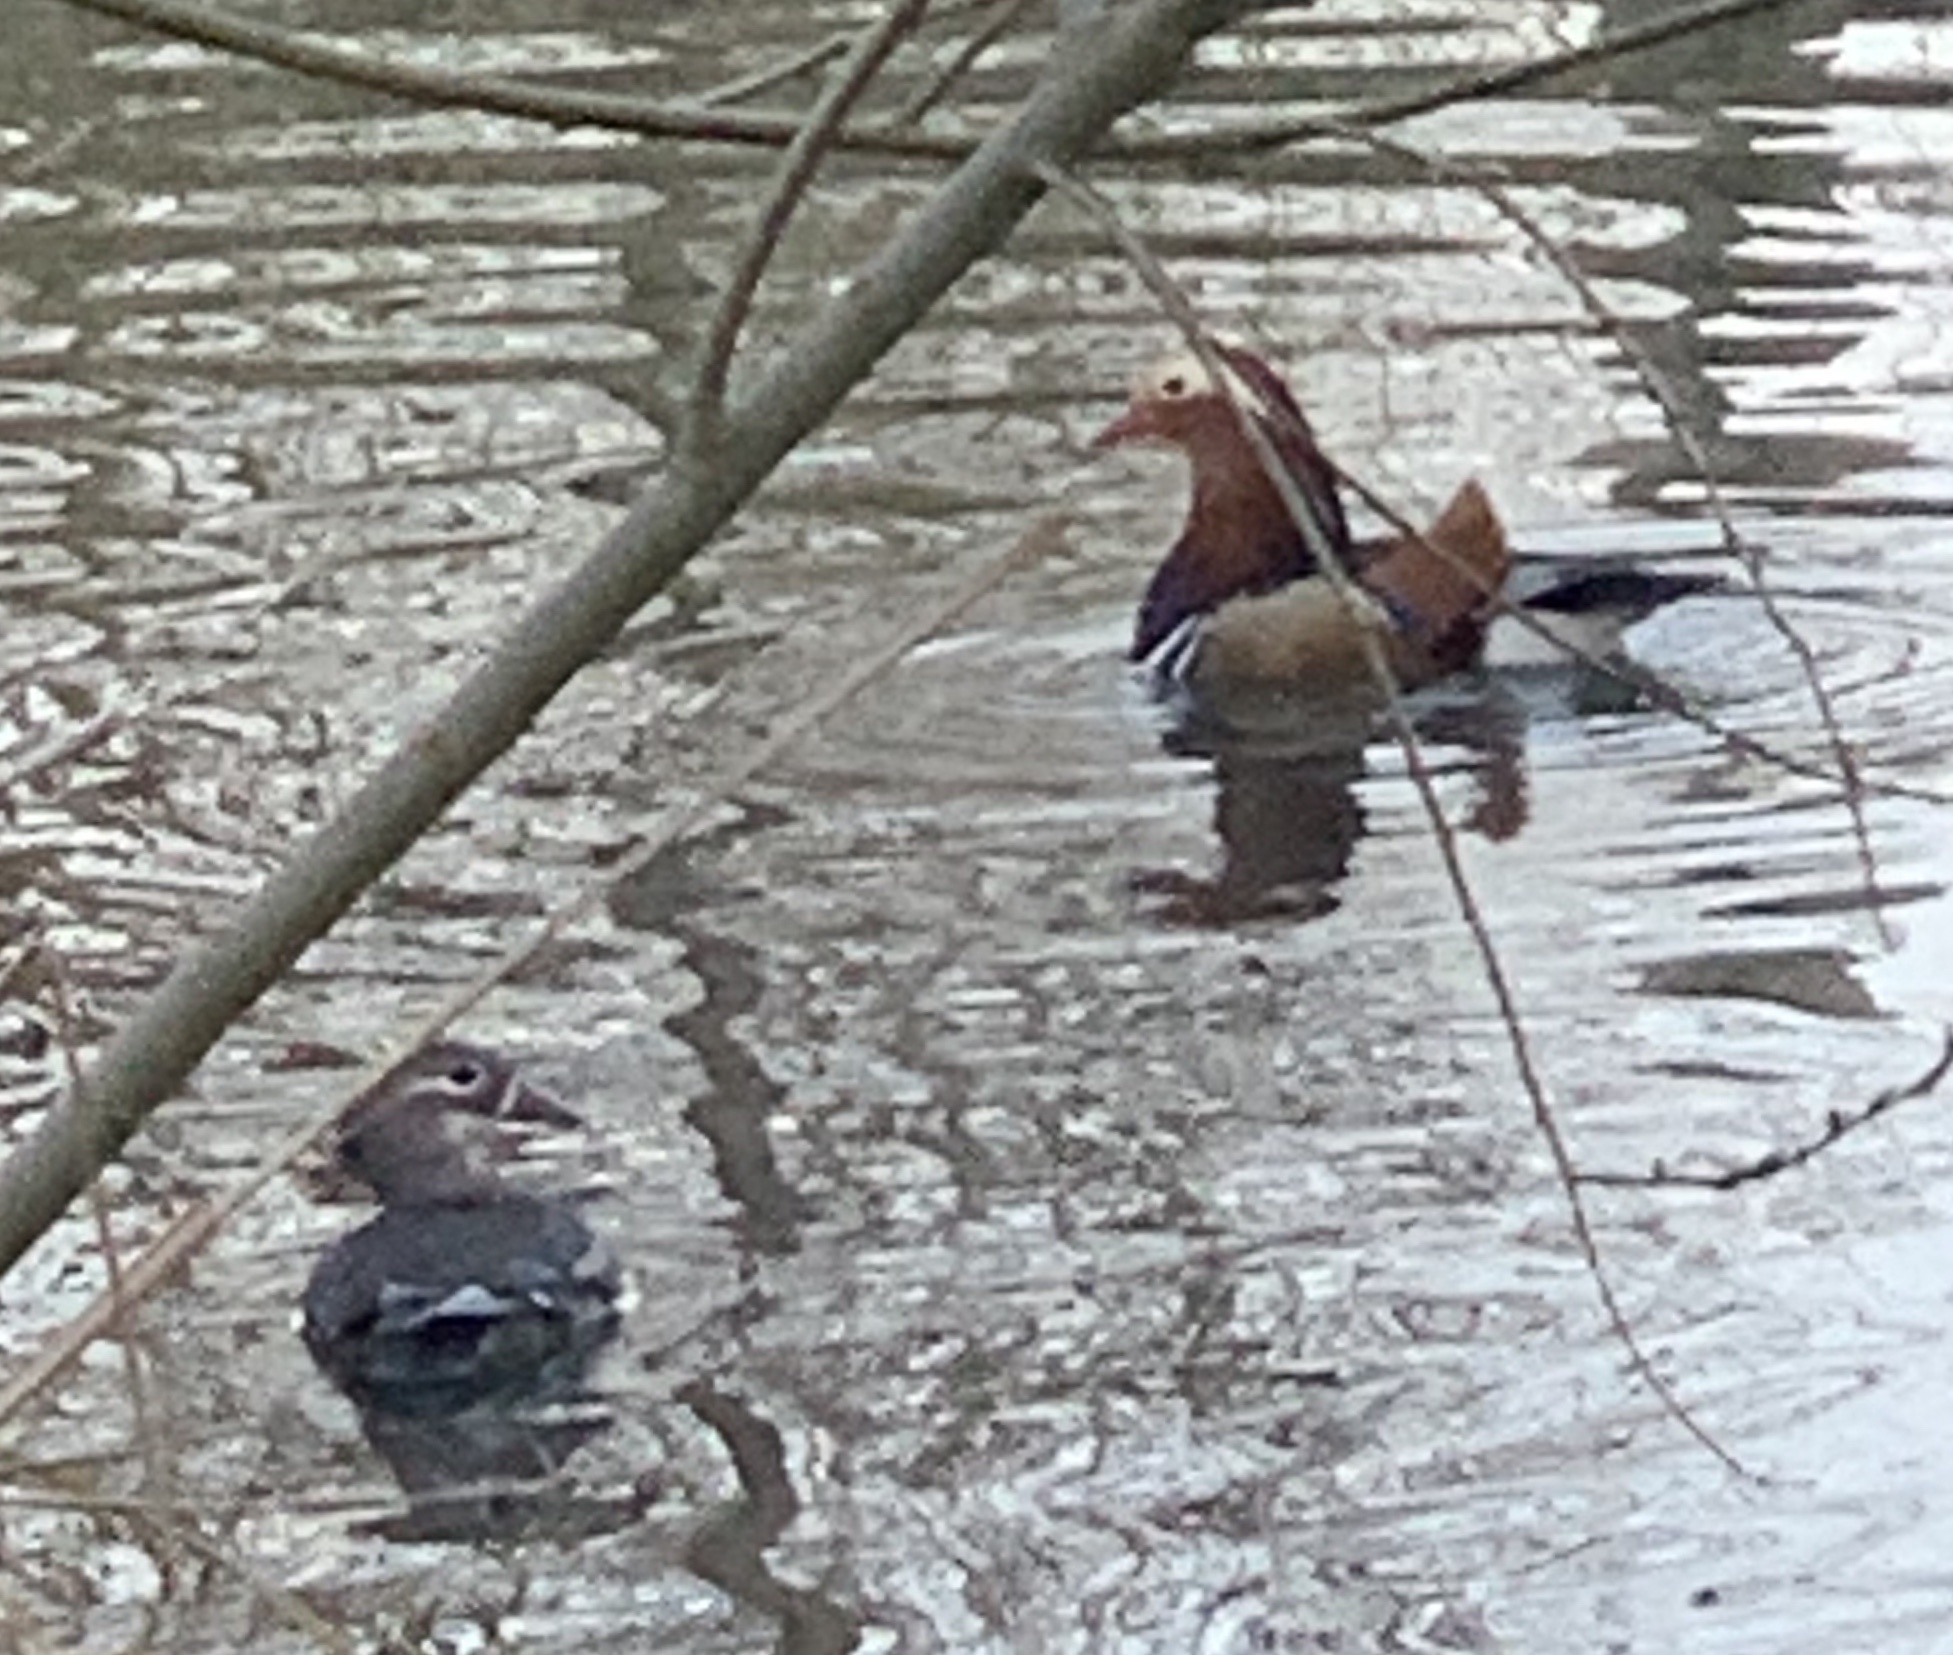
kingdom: Animalia
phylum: Chordata
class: Aves
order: Anseriformes
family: Anatidae
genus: Aix
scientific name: Aix galericulata
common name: Mandarin duck
